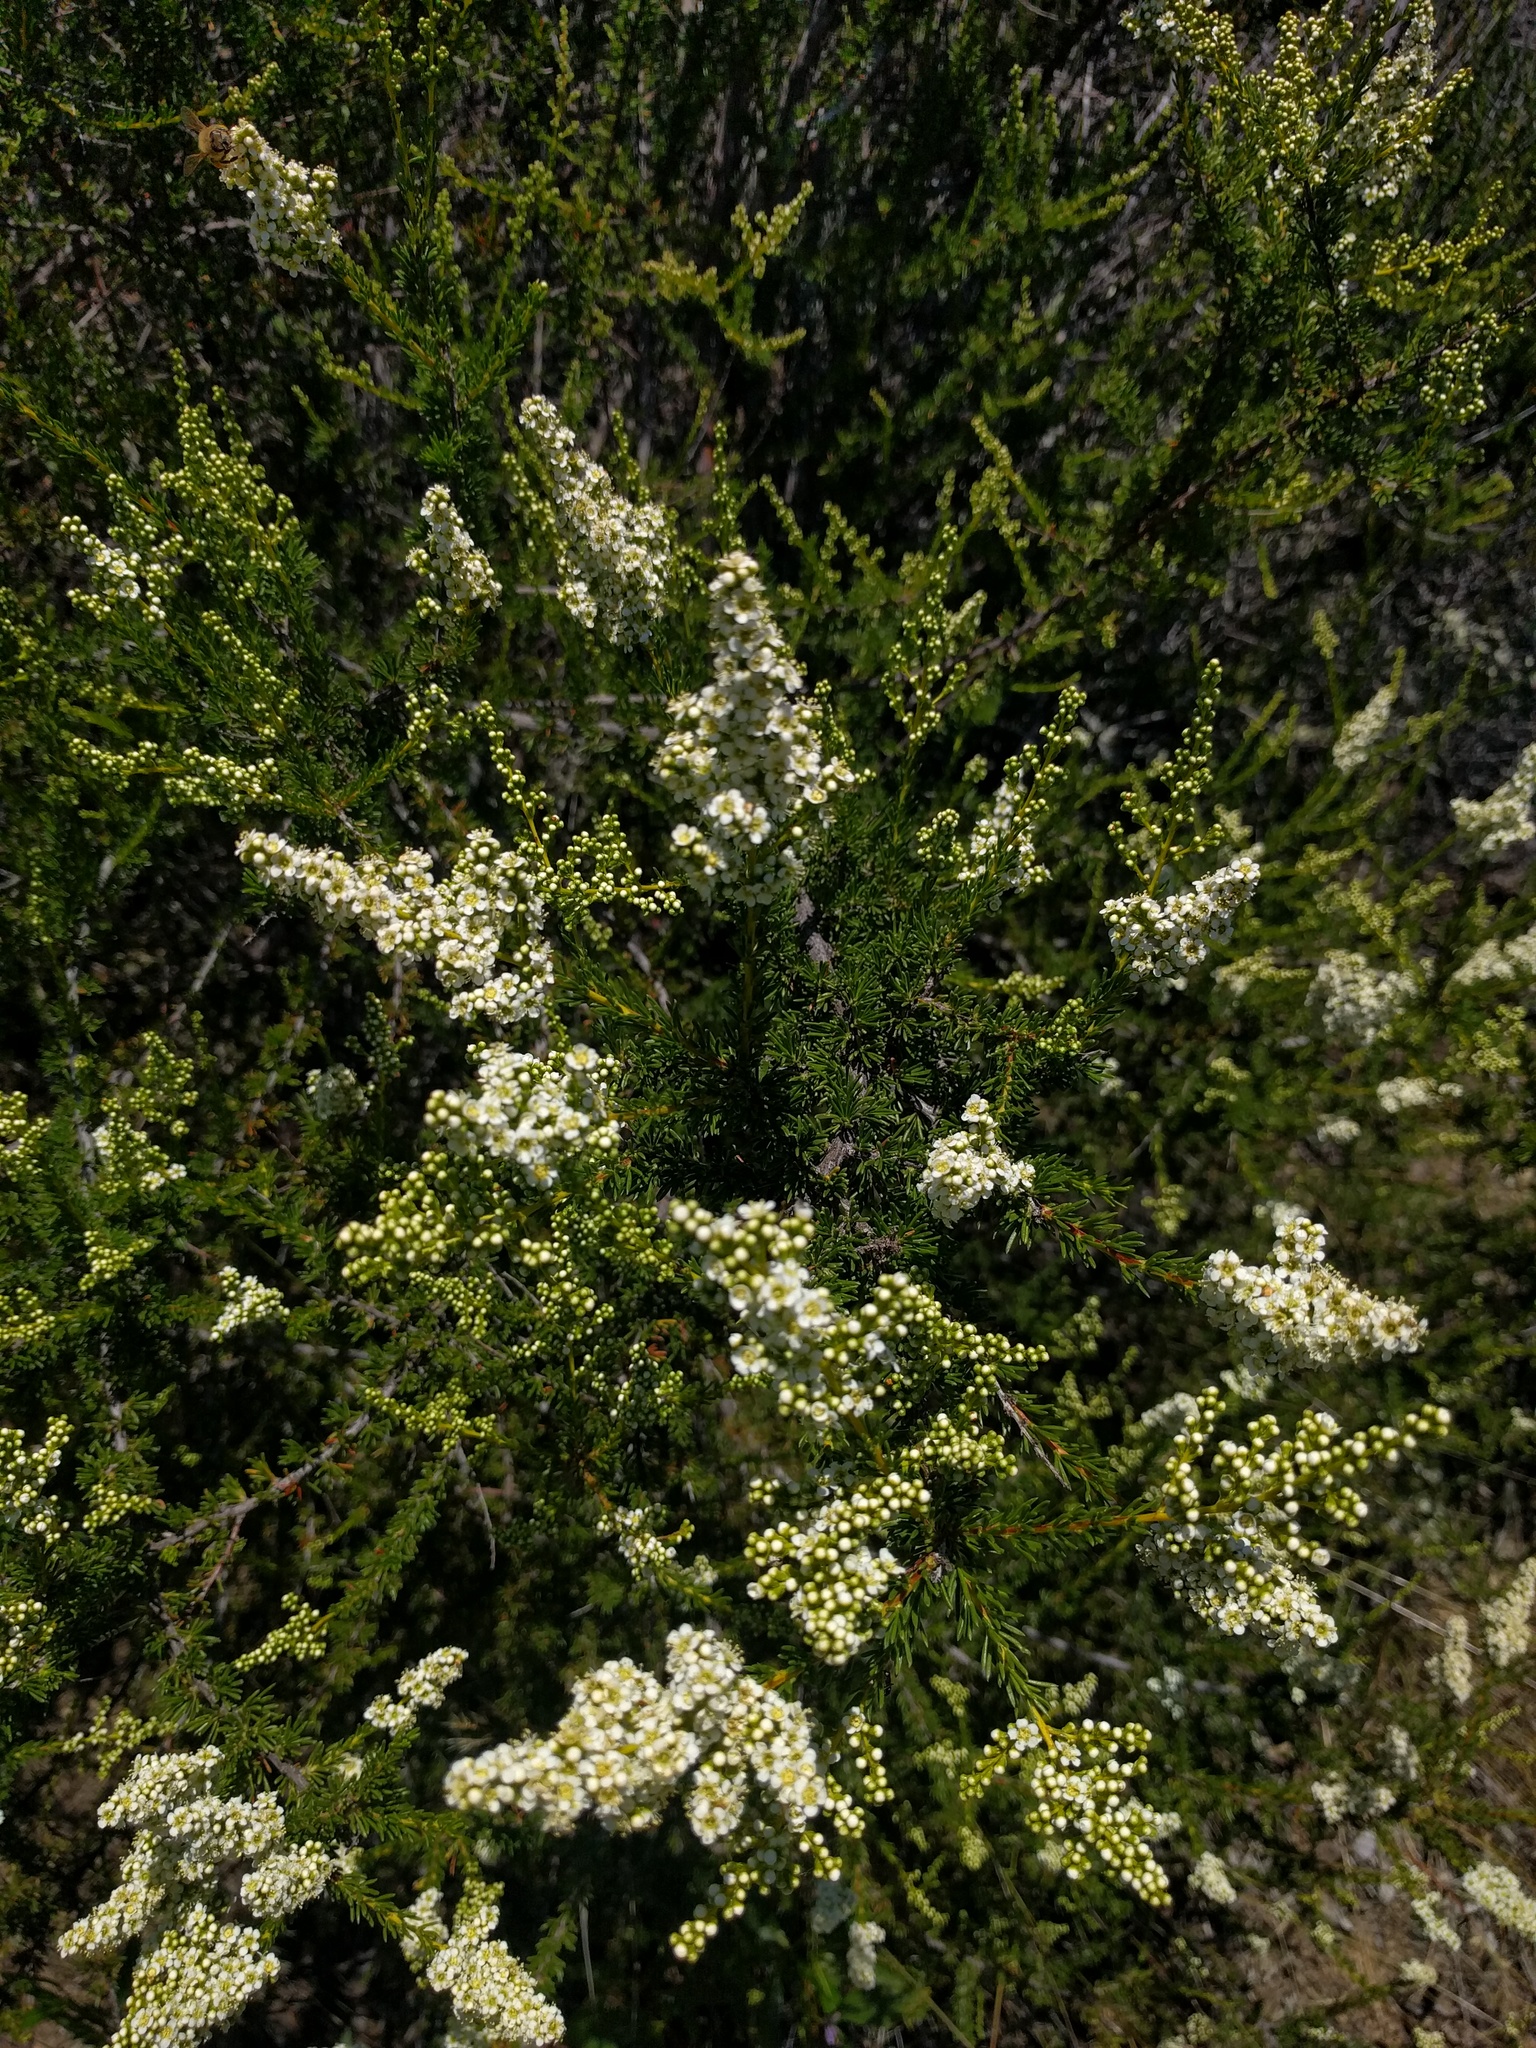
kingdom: Plantae
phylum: Tracheophyta
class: Magnoliopsida
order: Rosales
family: Rosaceae
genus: Adenostoma
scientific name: Adenostoma fasciculatum
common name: Chamise
